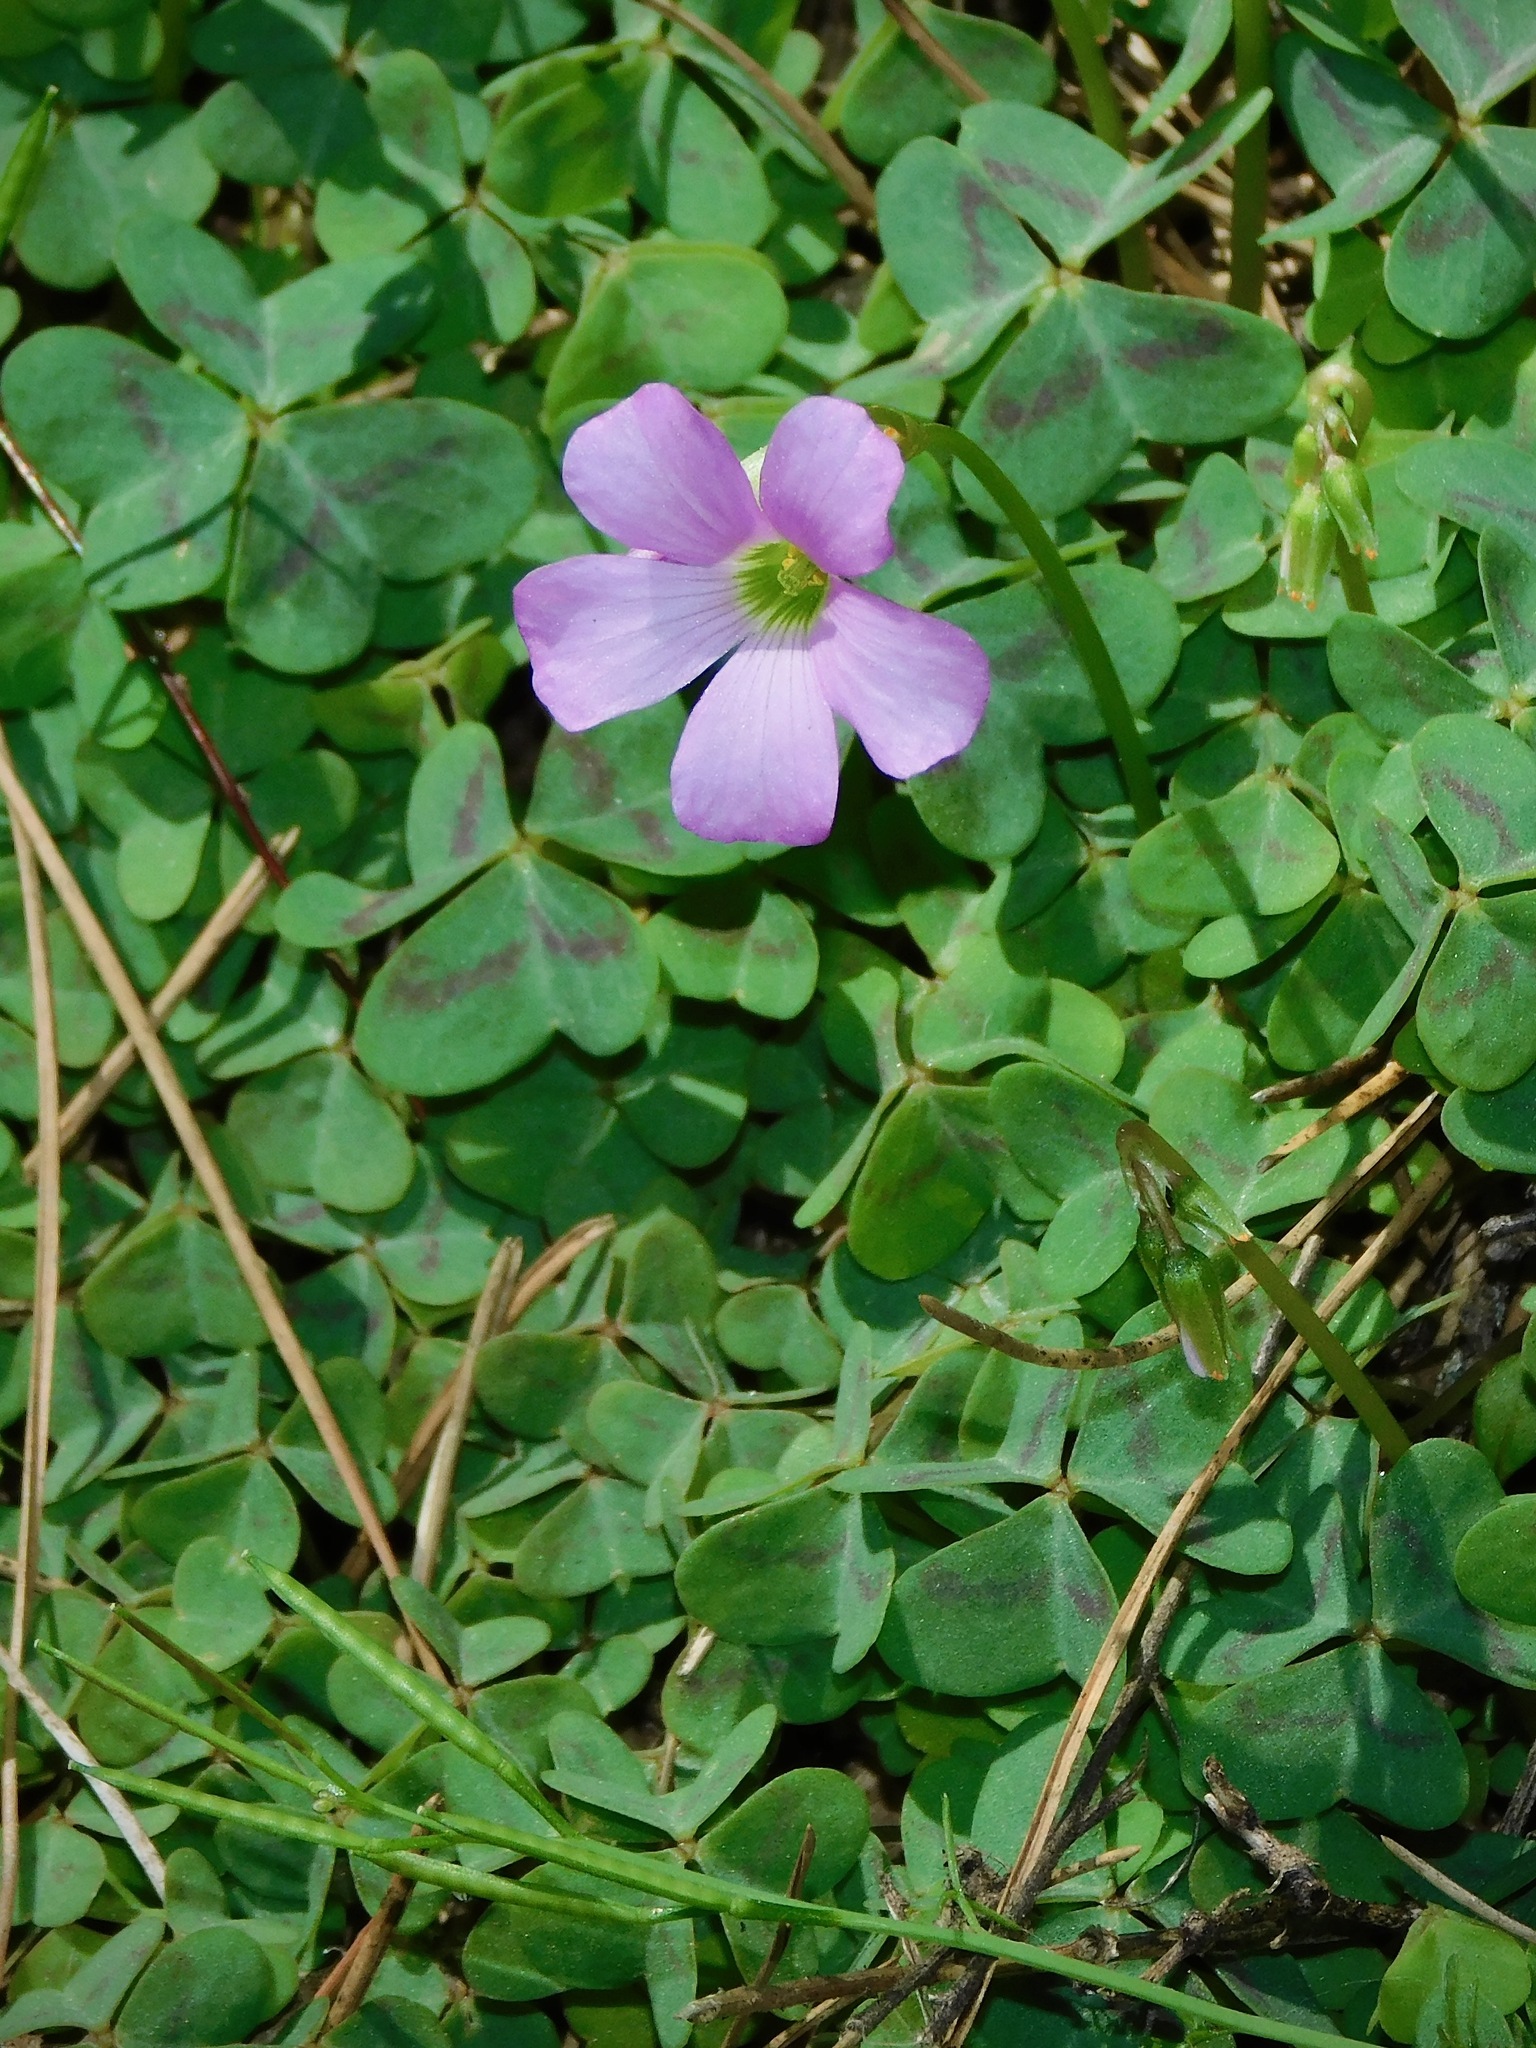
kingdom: Plantae
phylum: Tracheophyta
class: Magnoliopsida
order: Oxalidales
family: Oxalidaceae
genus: Oxalis
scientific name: Oxalis violacea
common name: Violet wood-sorrel
